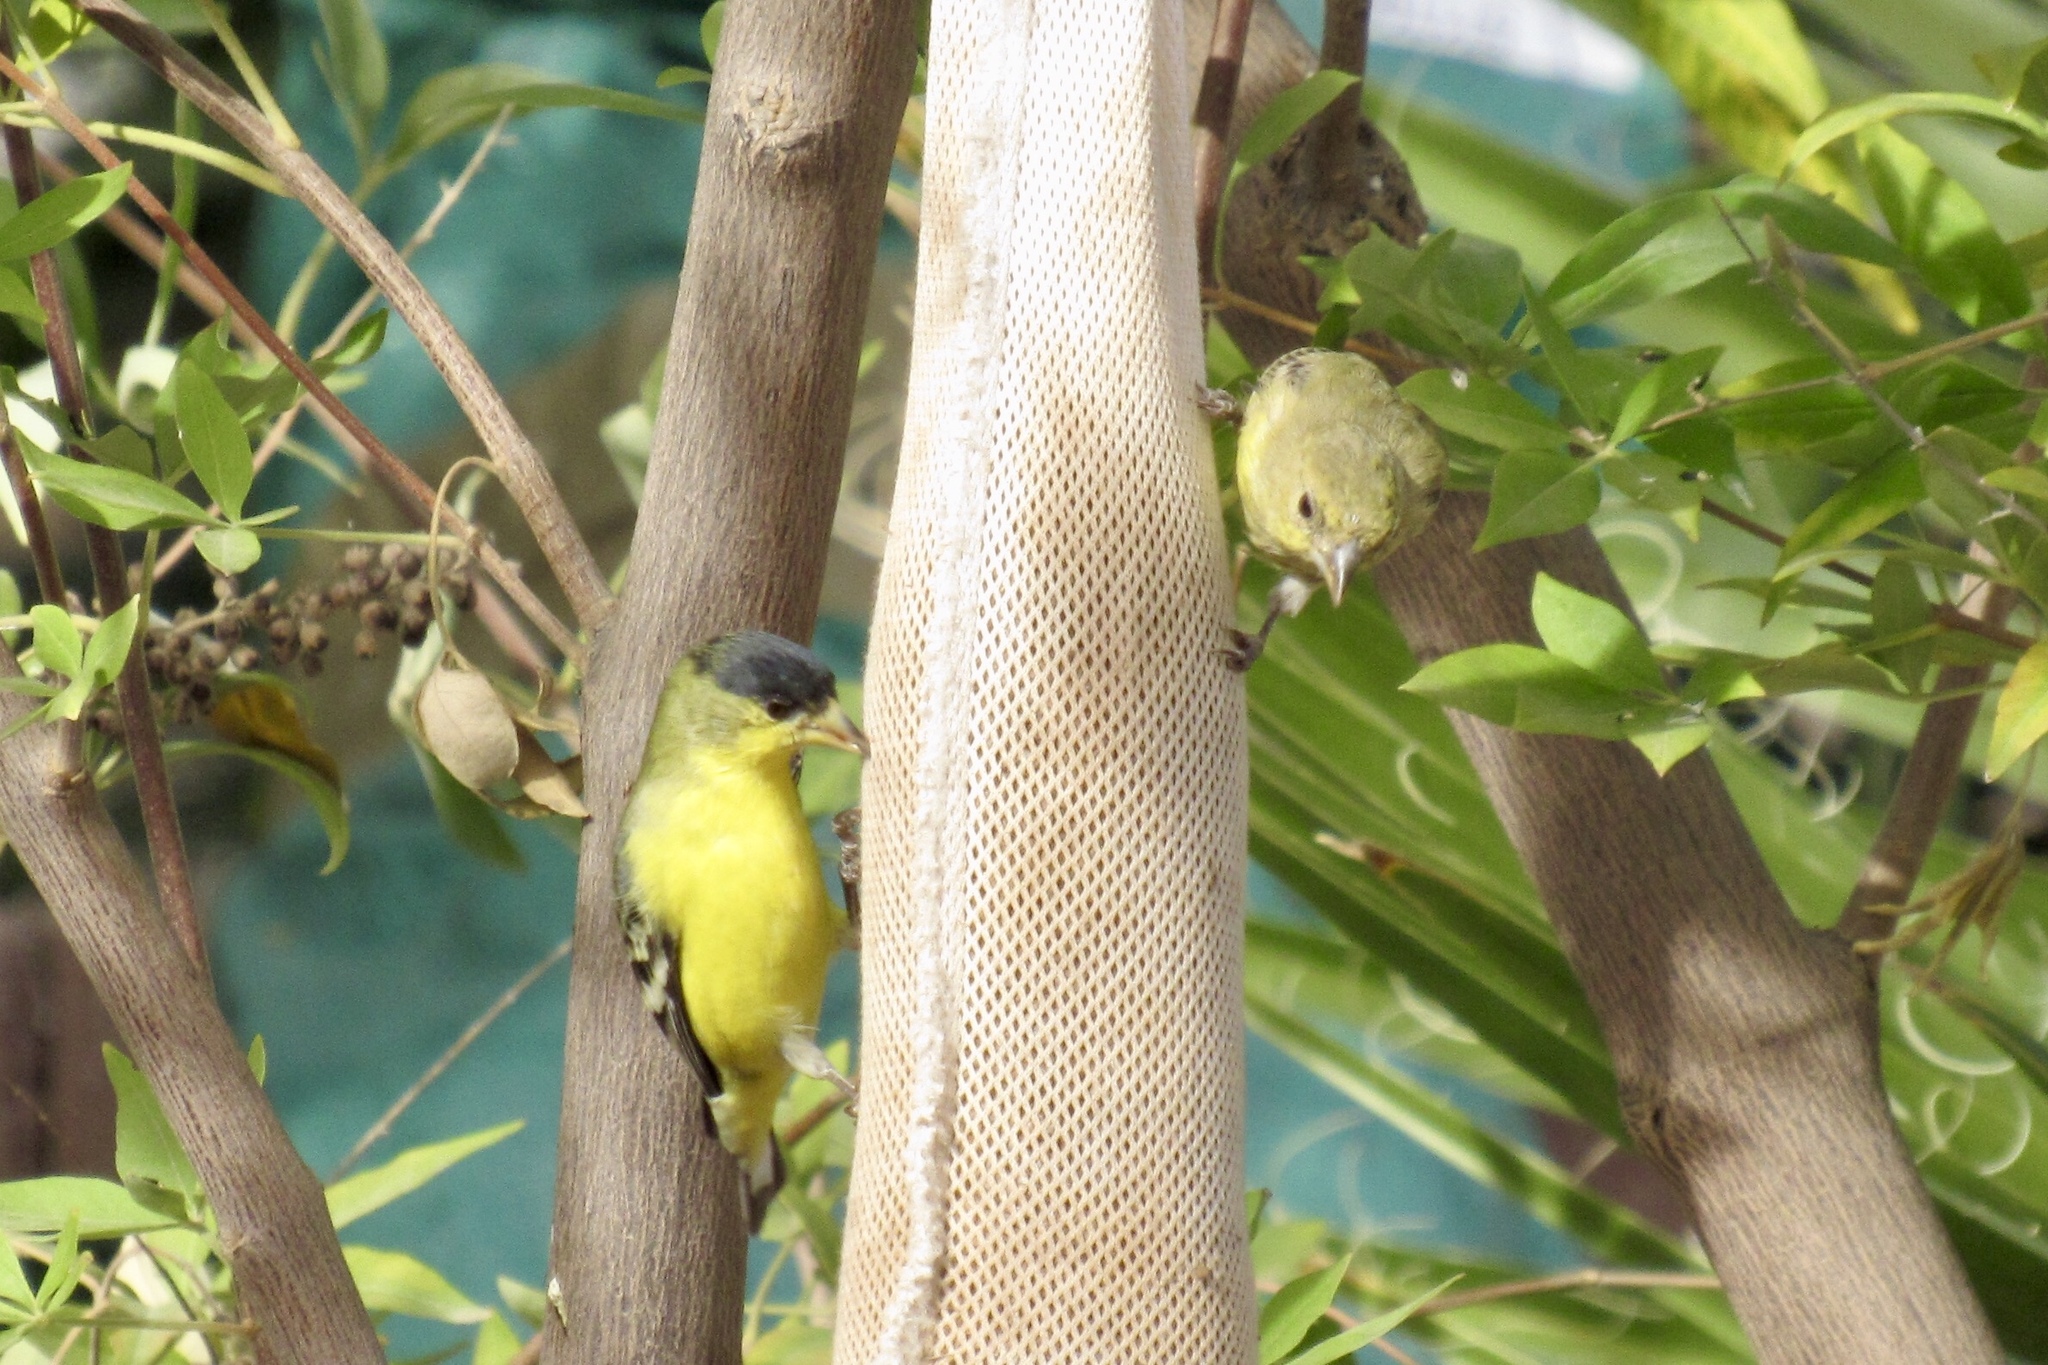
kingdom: Animalia
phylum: Chordata
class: Aves
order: Passeriformes
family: Fringillidae
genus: Spinus
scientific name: Spinus psaltria
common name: Lesser goldfinch
